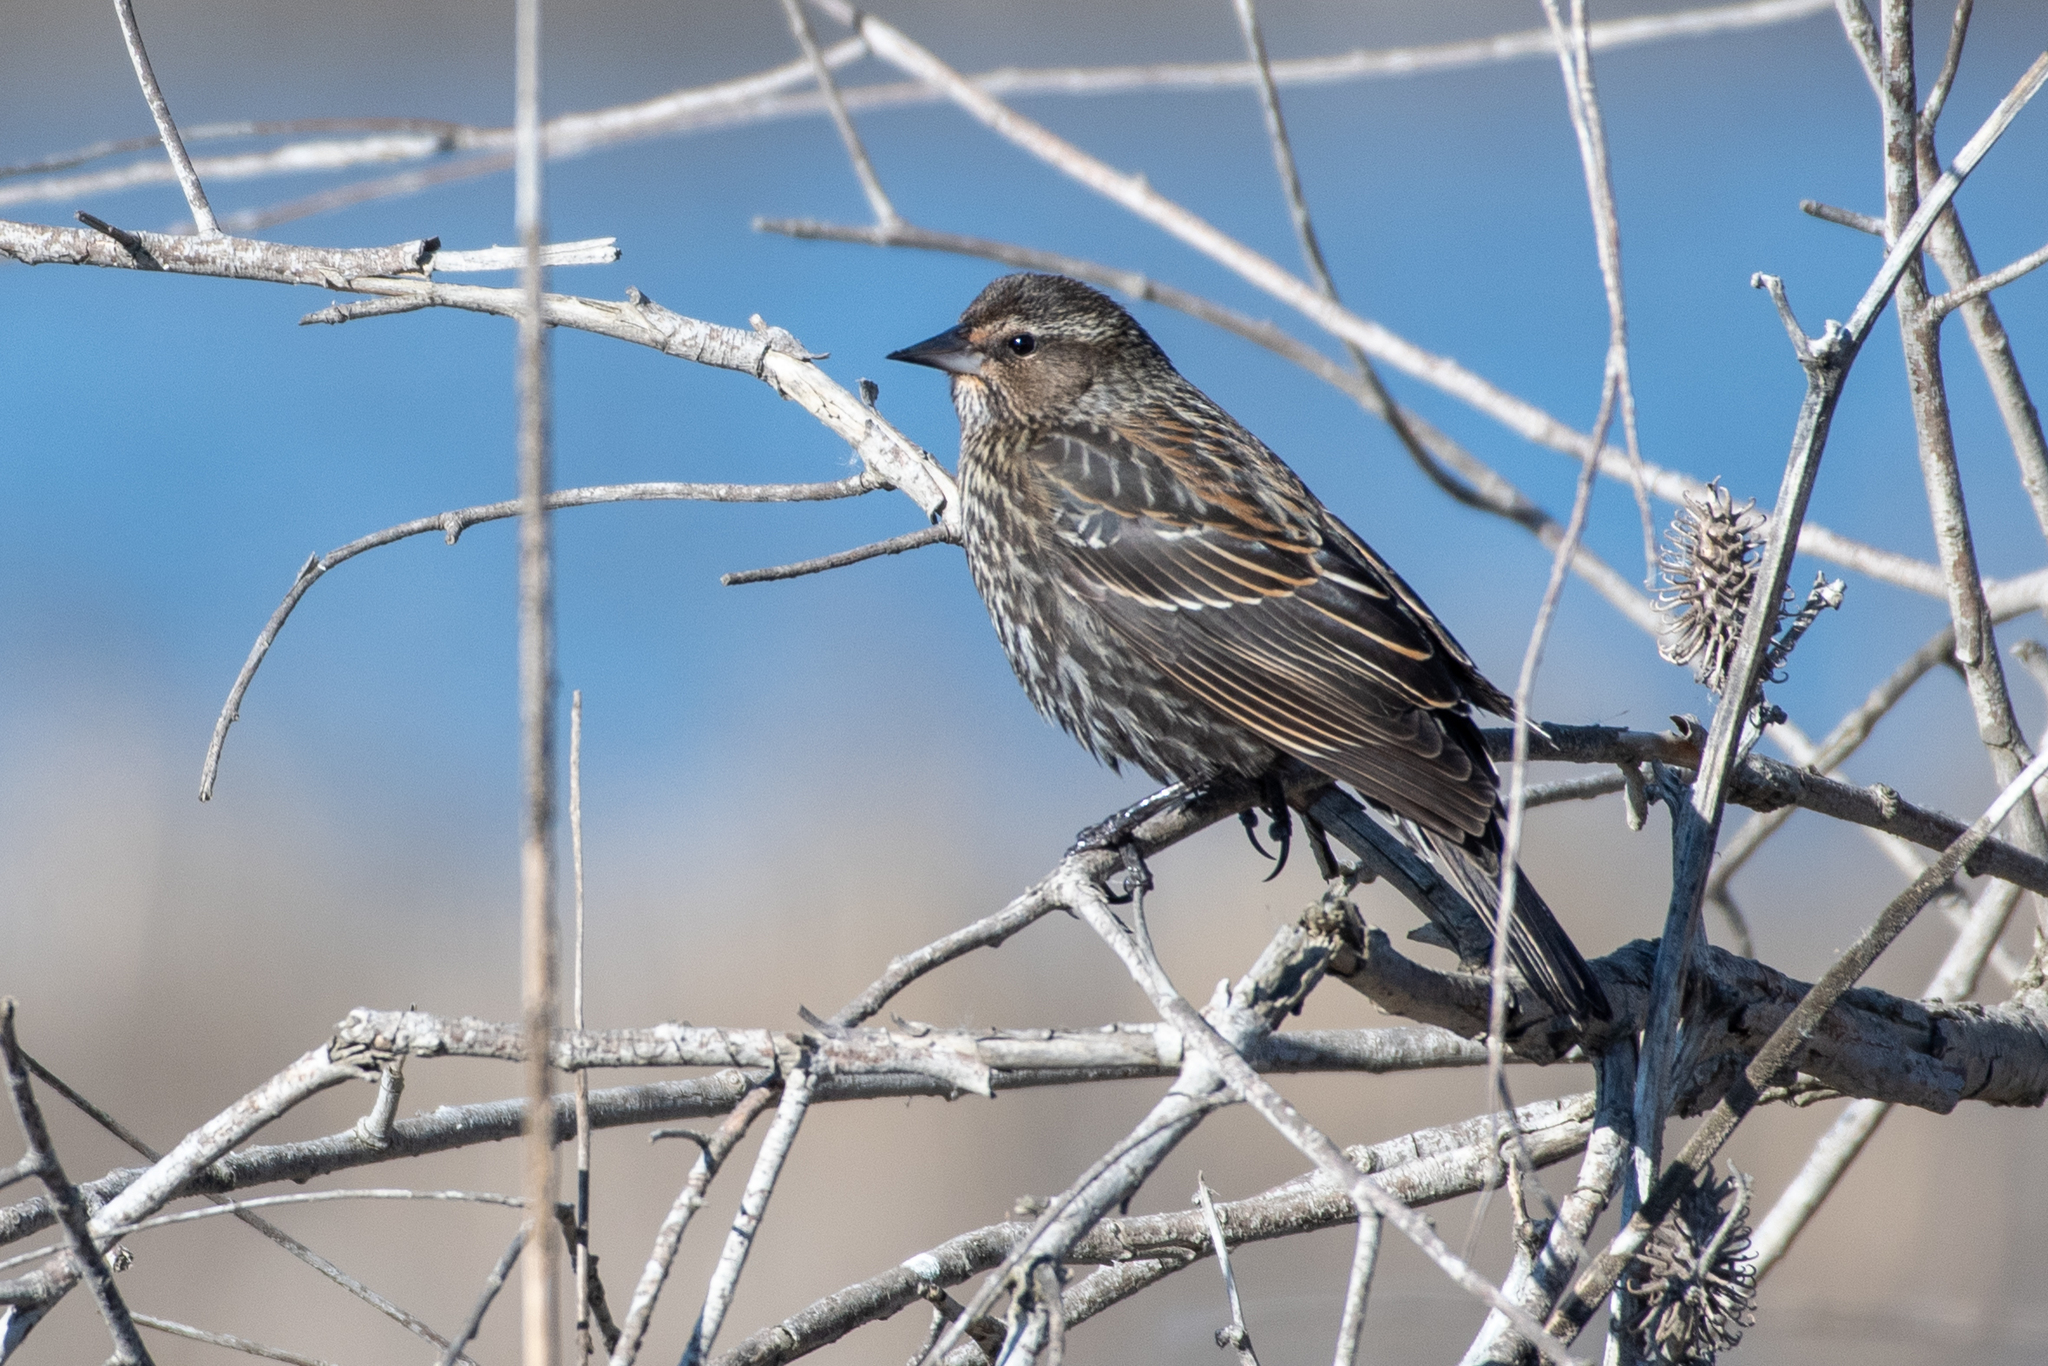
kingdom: Animalia
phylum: Chordata
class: Aves
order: Passeriformes
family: Icteridae
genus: Agelaius
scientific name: Agelaius phoeniceus
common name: Red-winged blackbird
